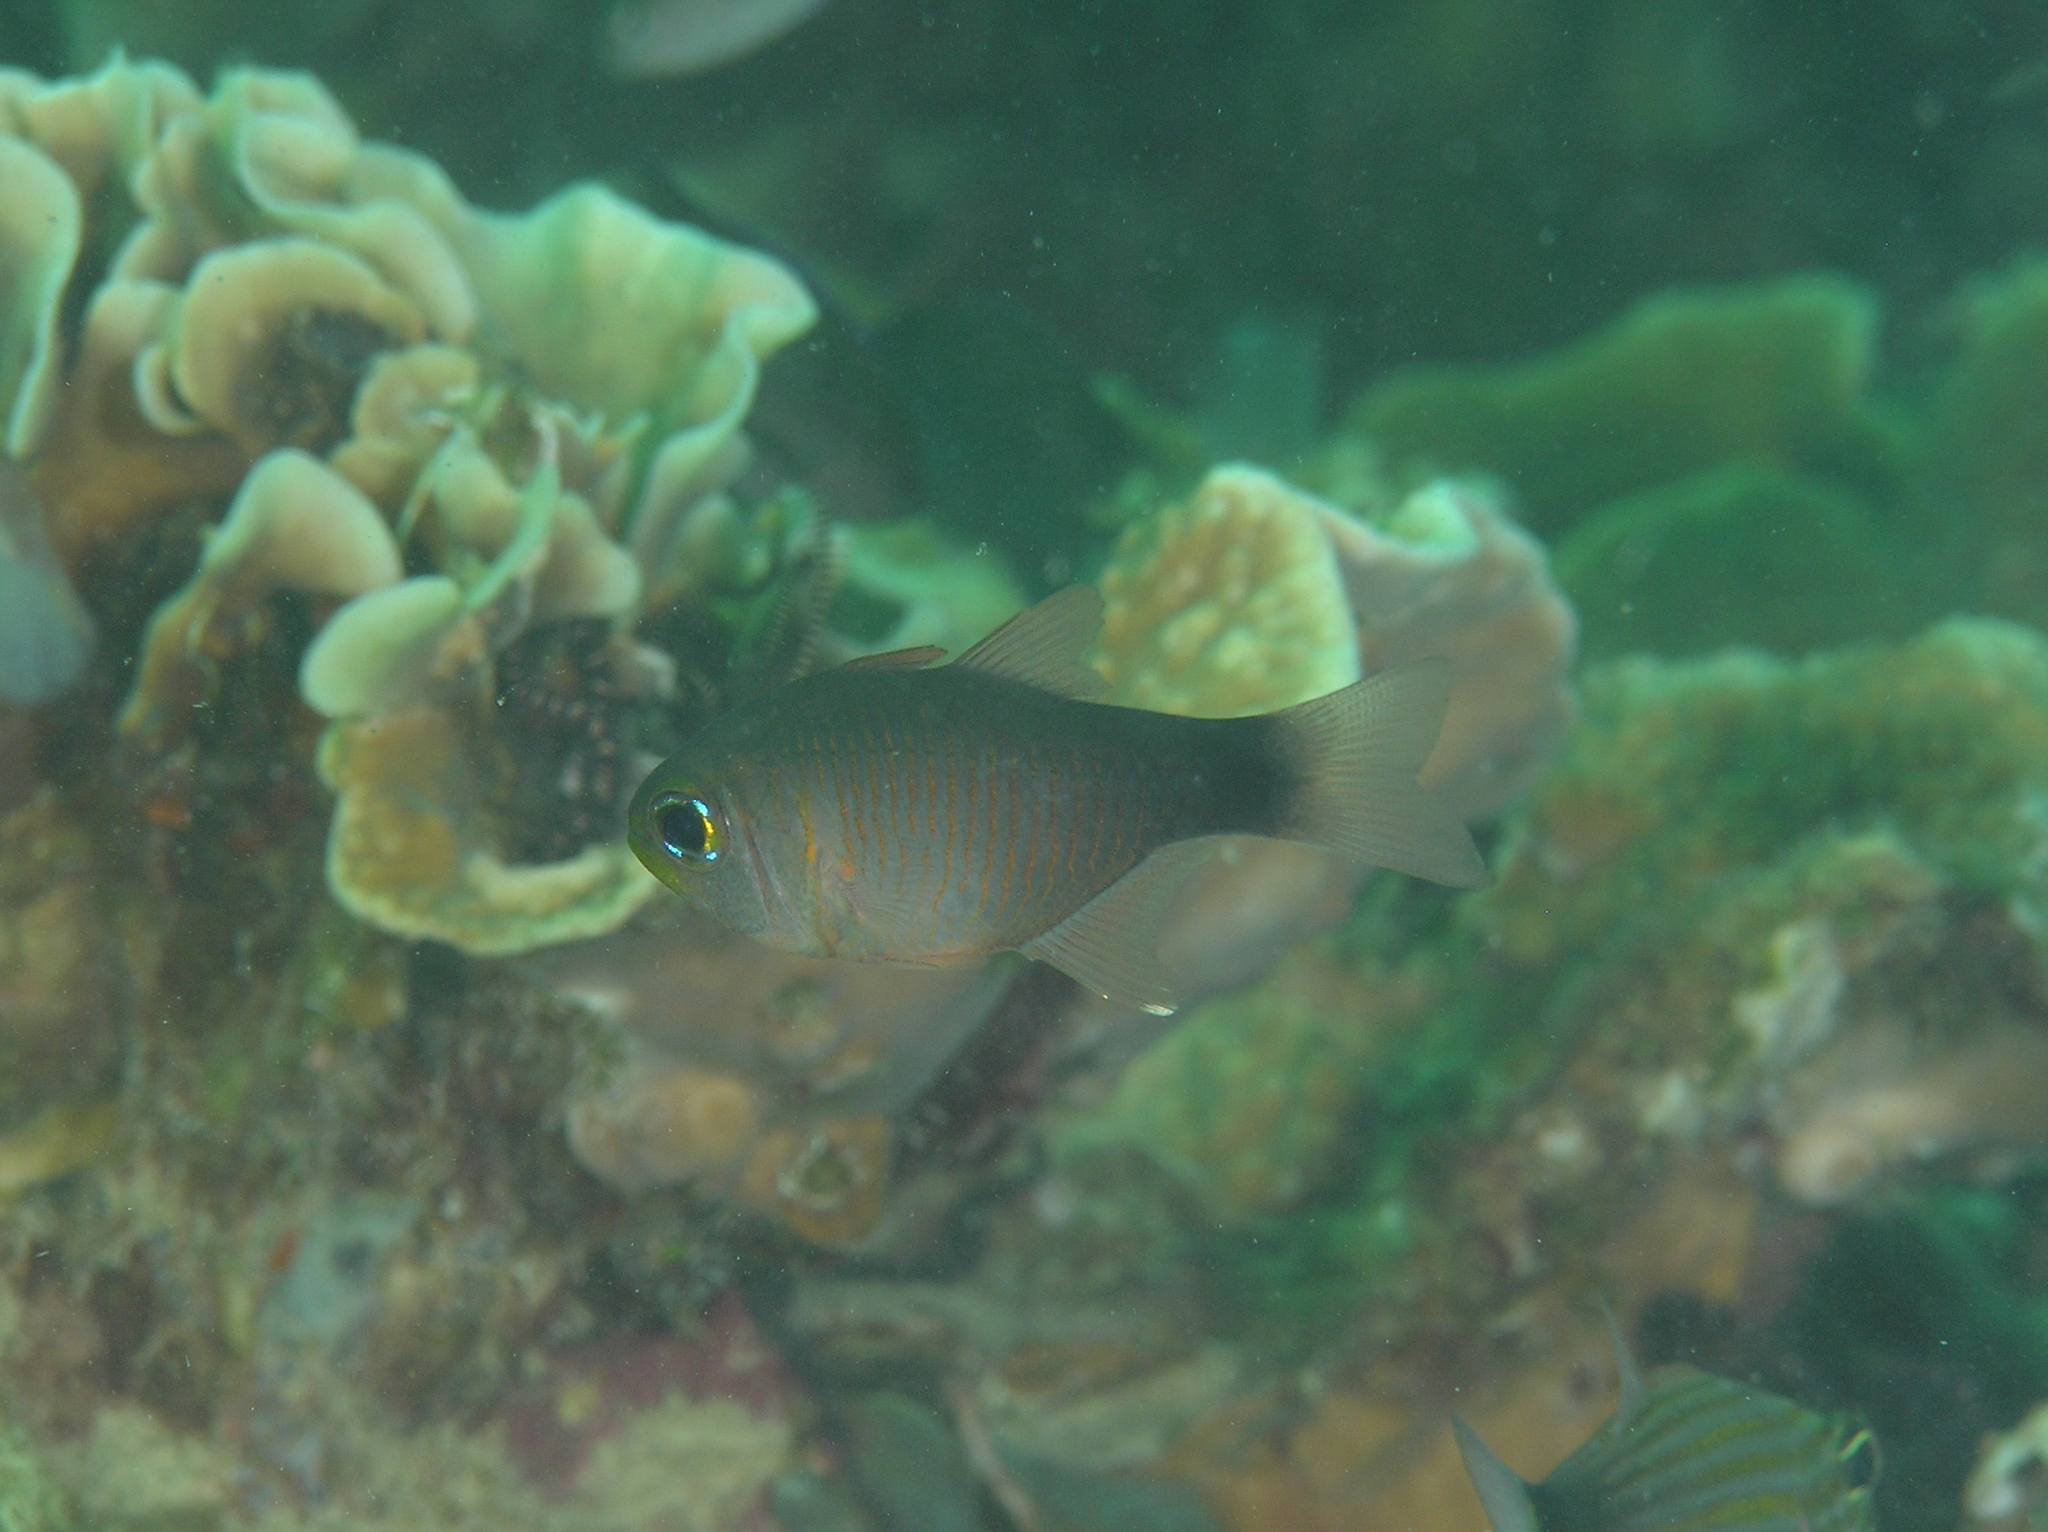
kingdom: Animalia
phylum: Chordata
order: Perciformes
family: Apogonidae
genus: Taeniamia
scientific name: Taeniamia macroptera
